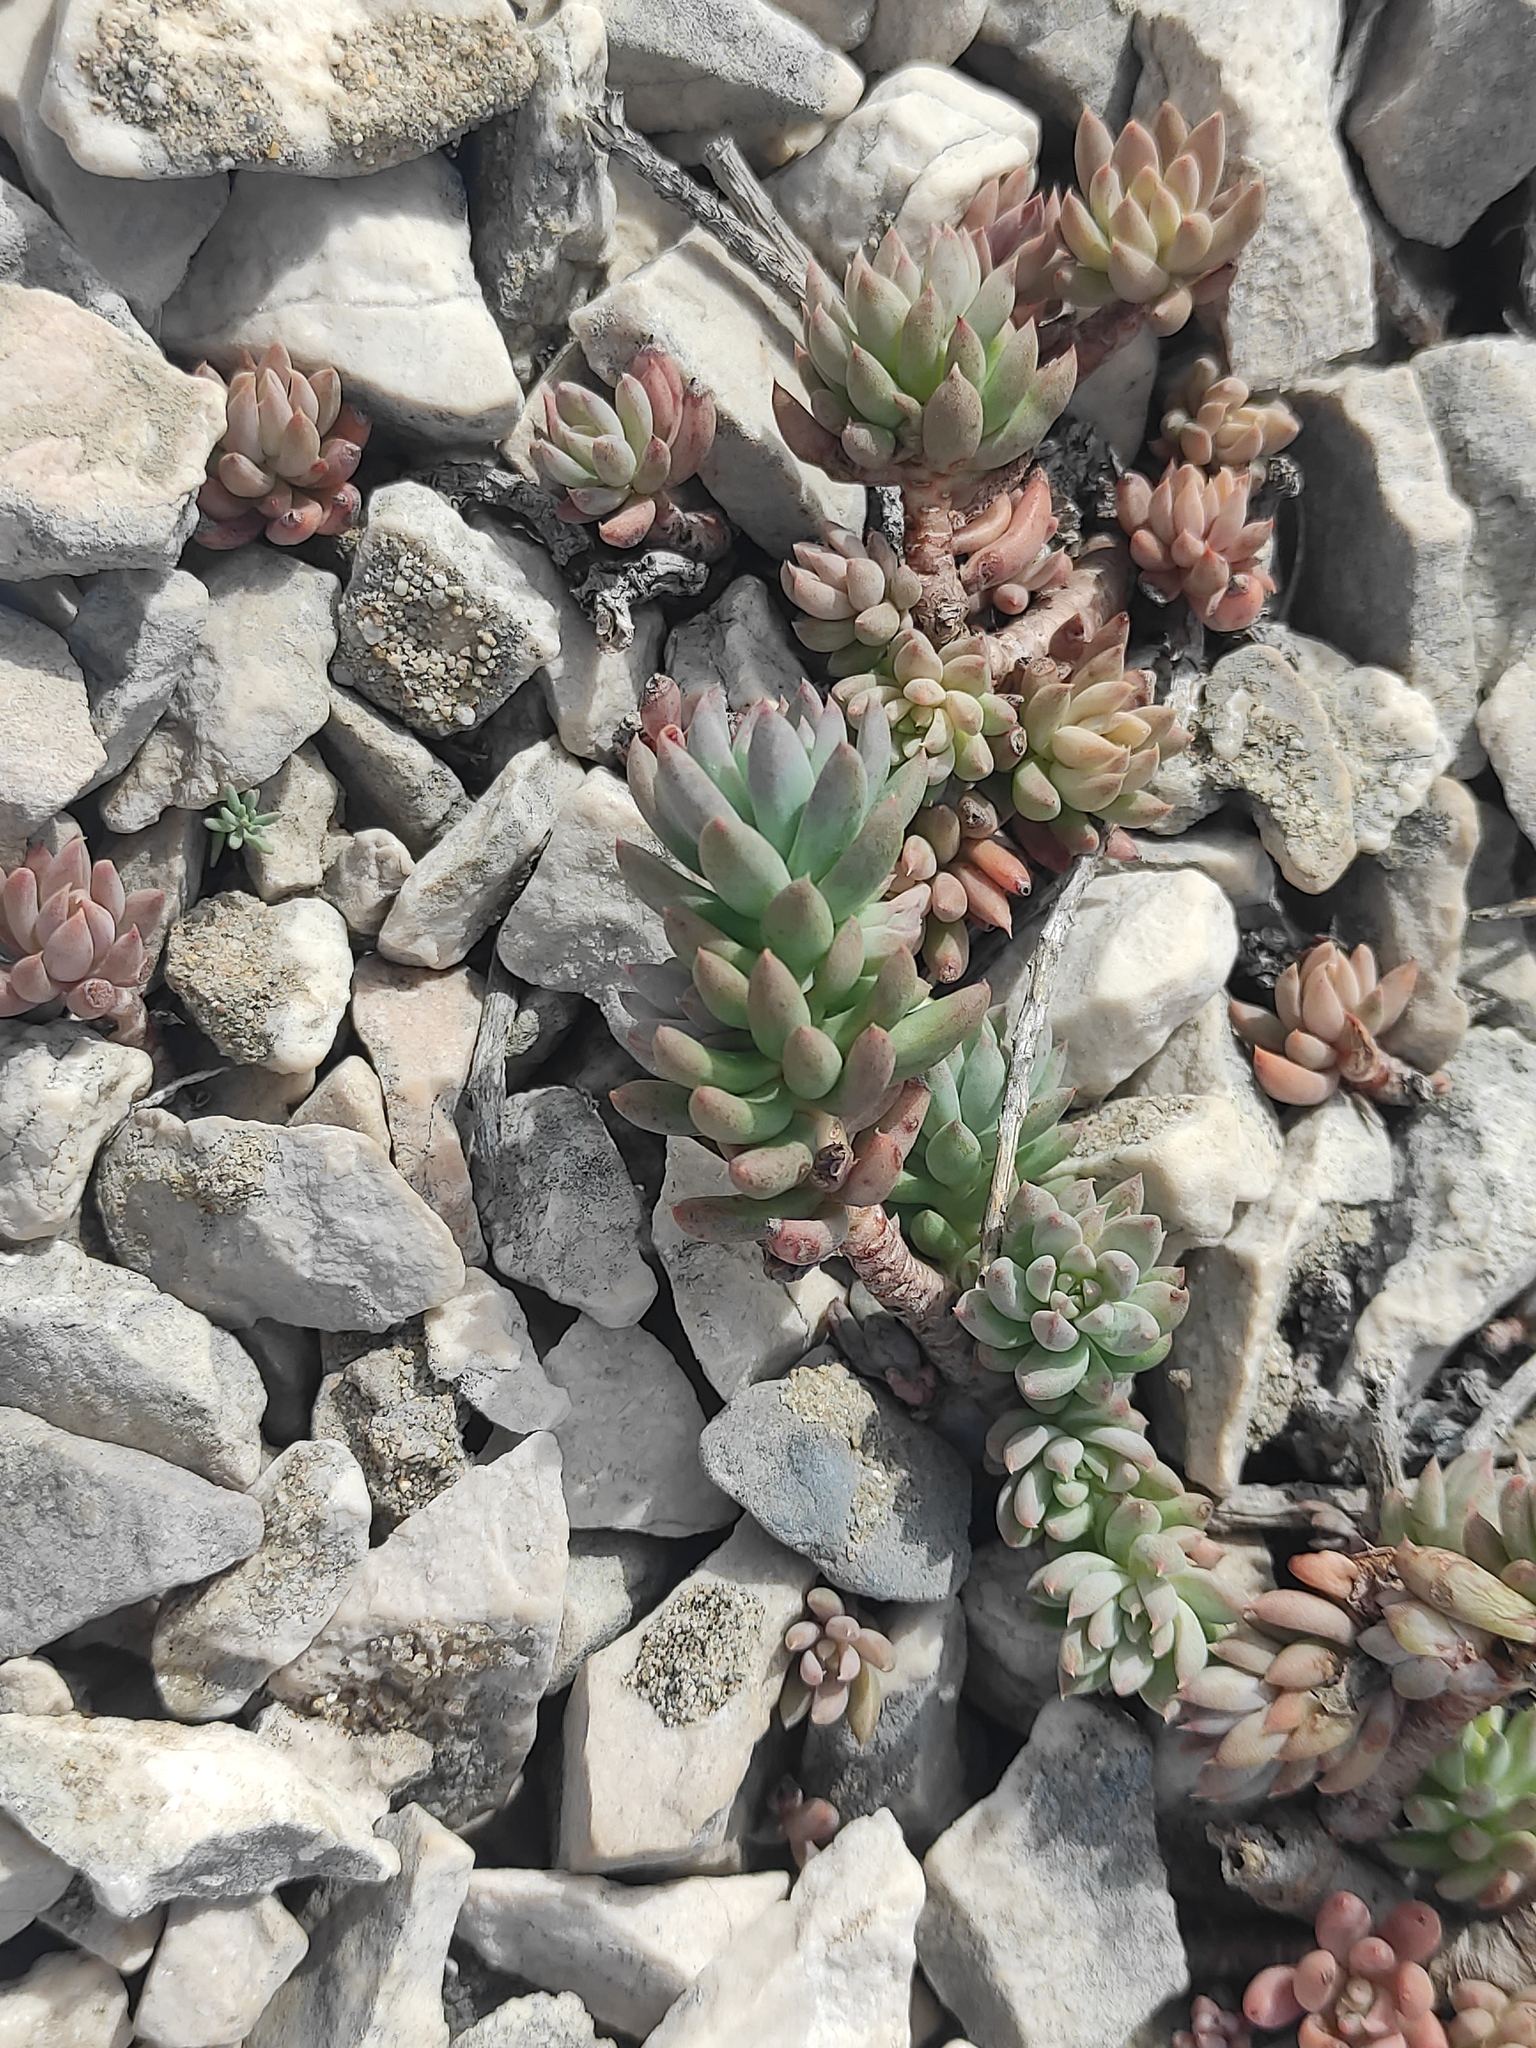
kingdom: Plantae
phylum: Tracheophyta
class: Magnoliopsida
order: Saxifragales
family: Crassulaceae
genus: Petrosedum
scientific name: Petrosedum sediforme
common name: Pale stonecrop
